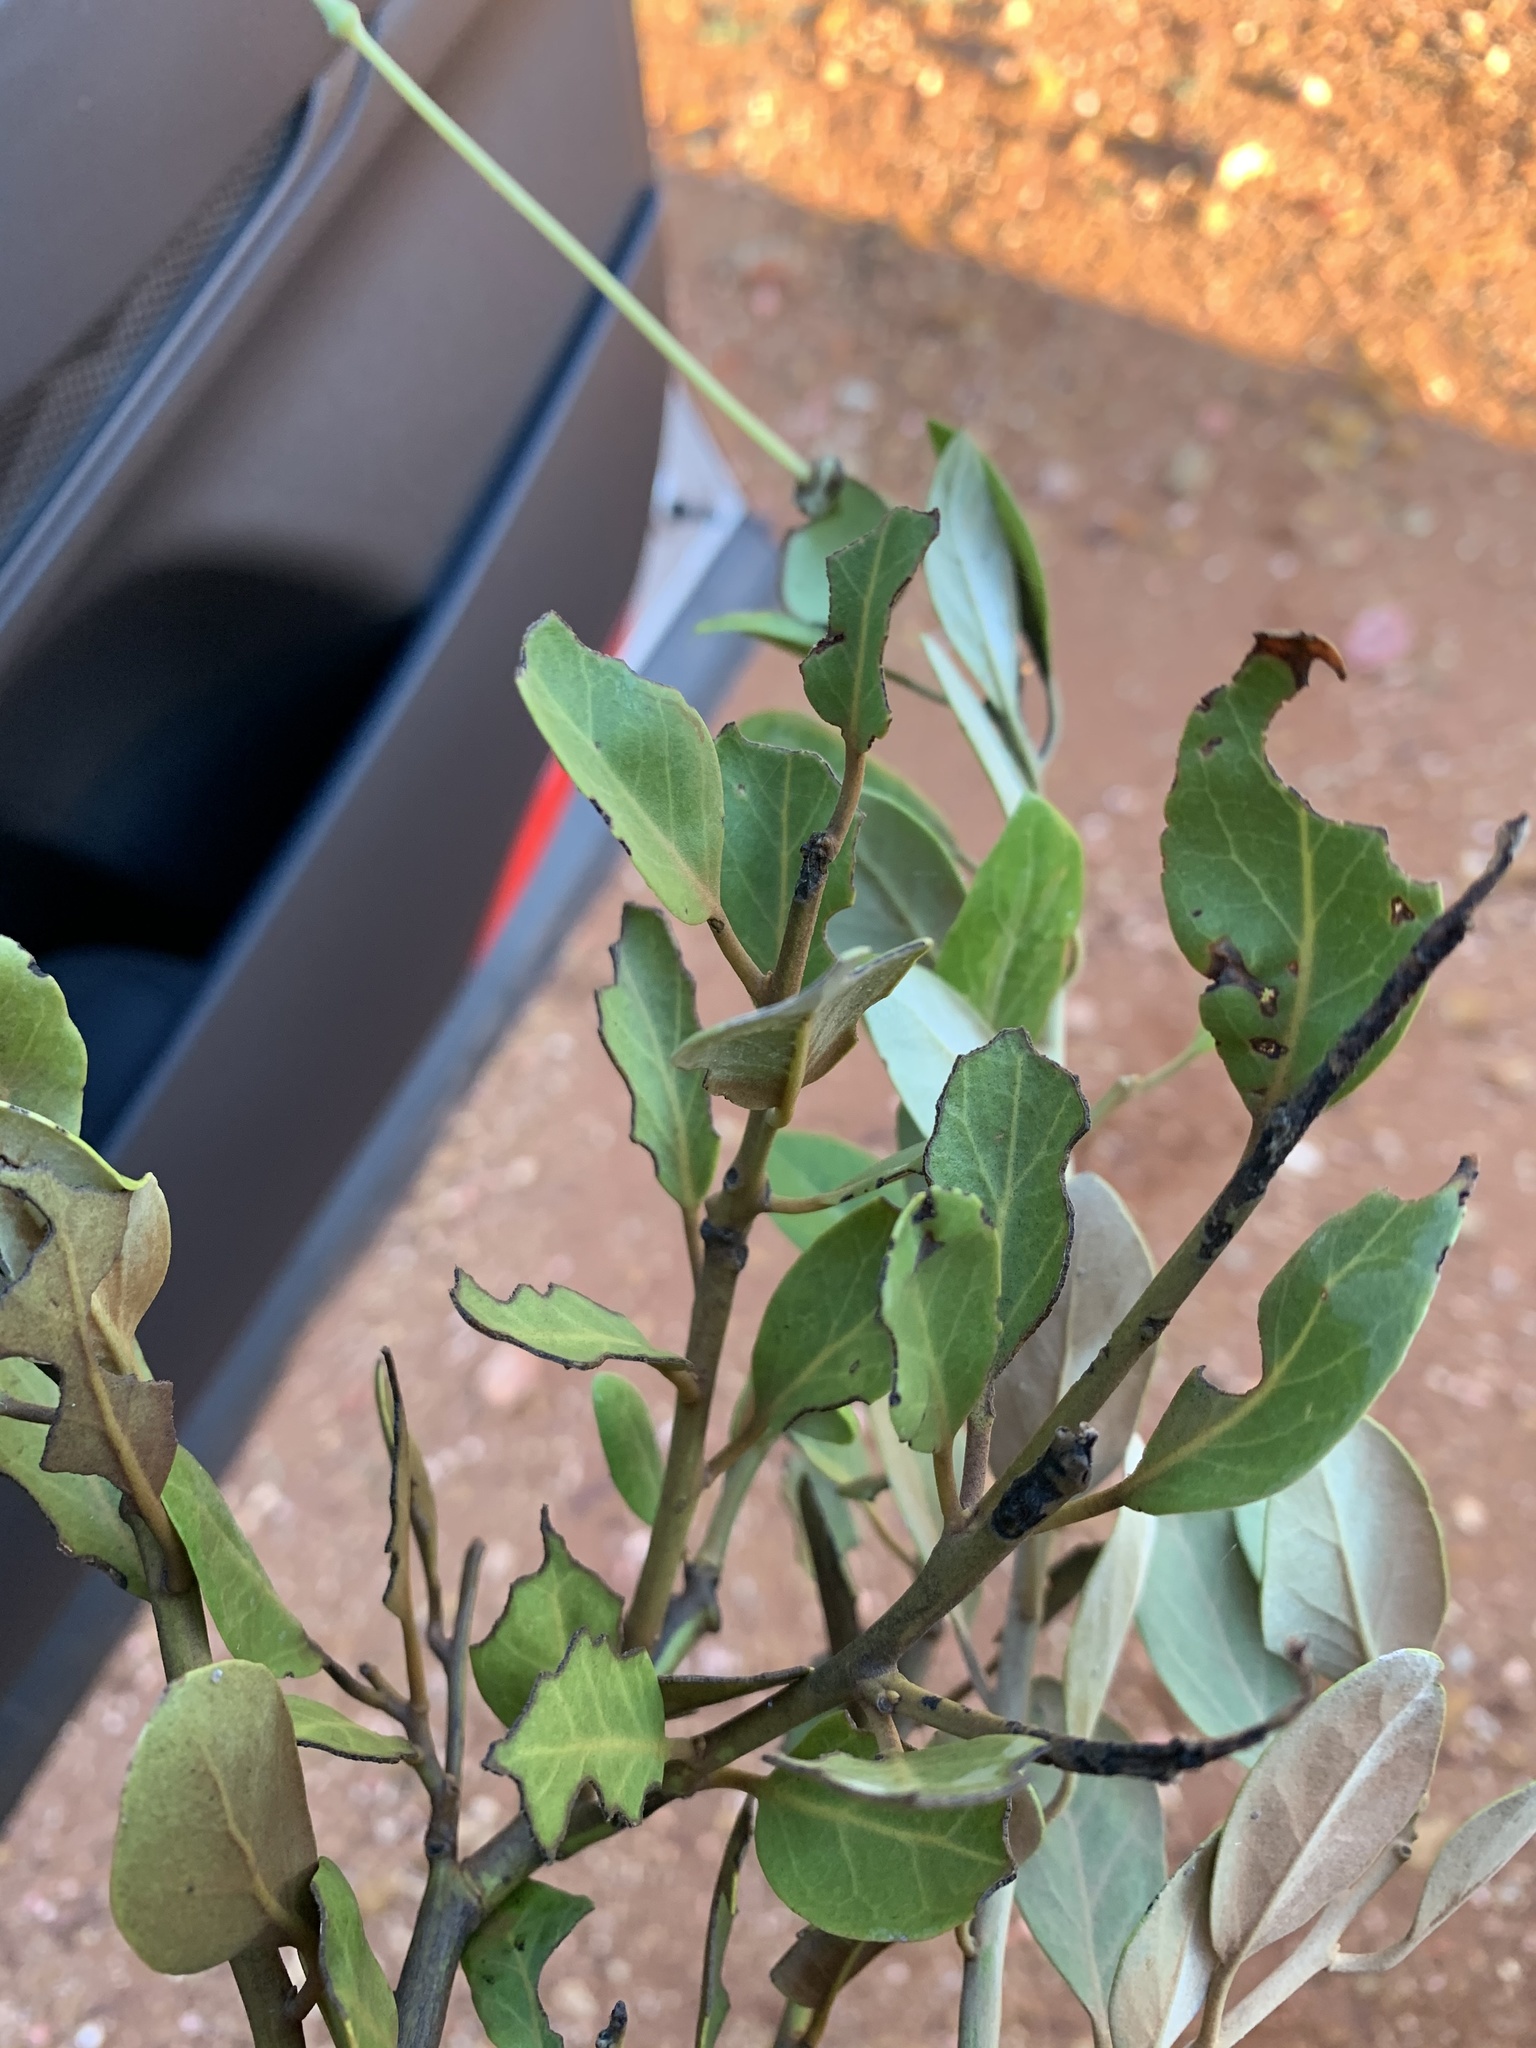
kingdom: Plantae
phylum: Tracheophyta
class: Magnoliopsida
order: Brassicales
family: Capparaceae
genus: Capparis
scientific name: Capparis mitchellii
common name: Desert caper
